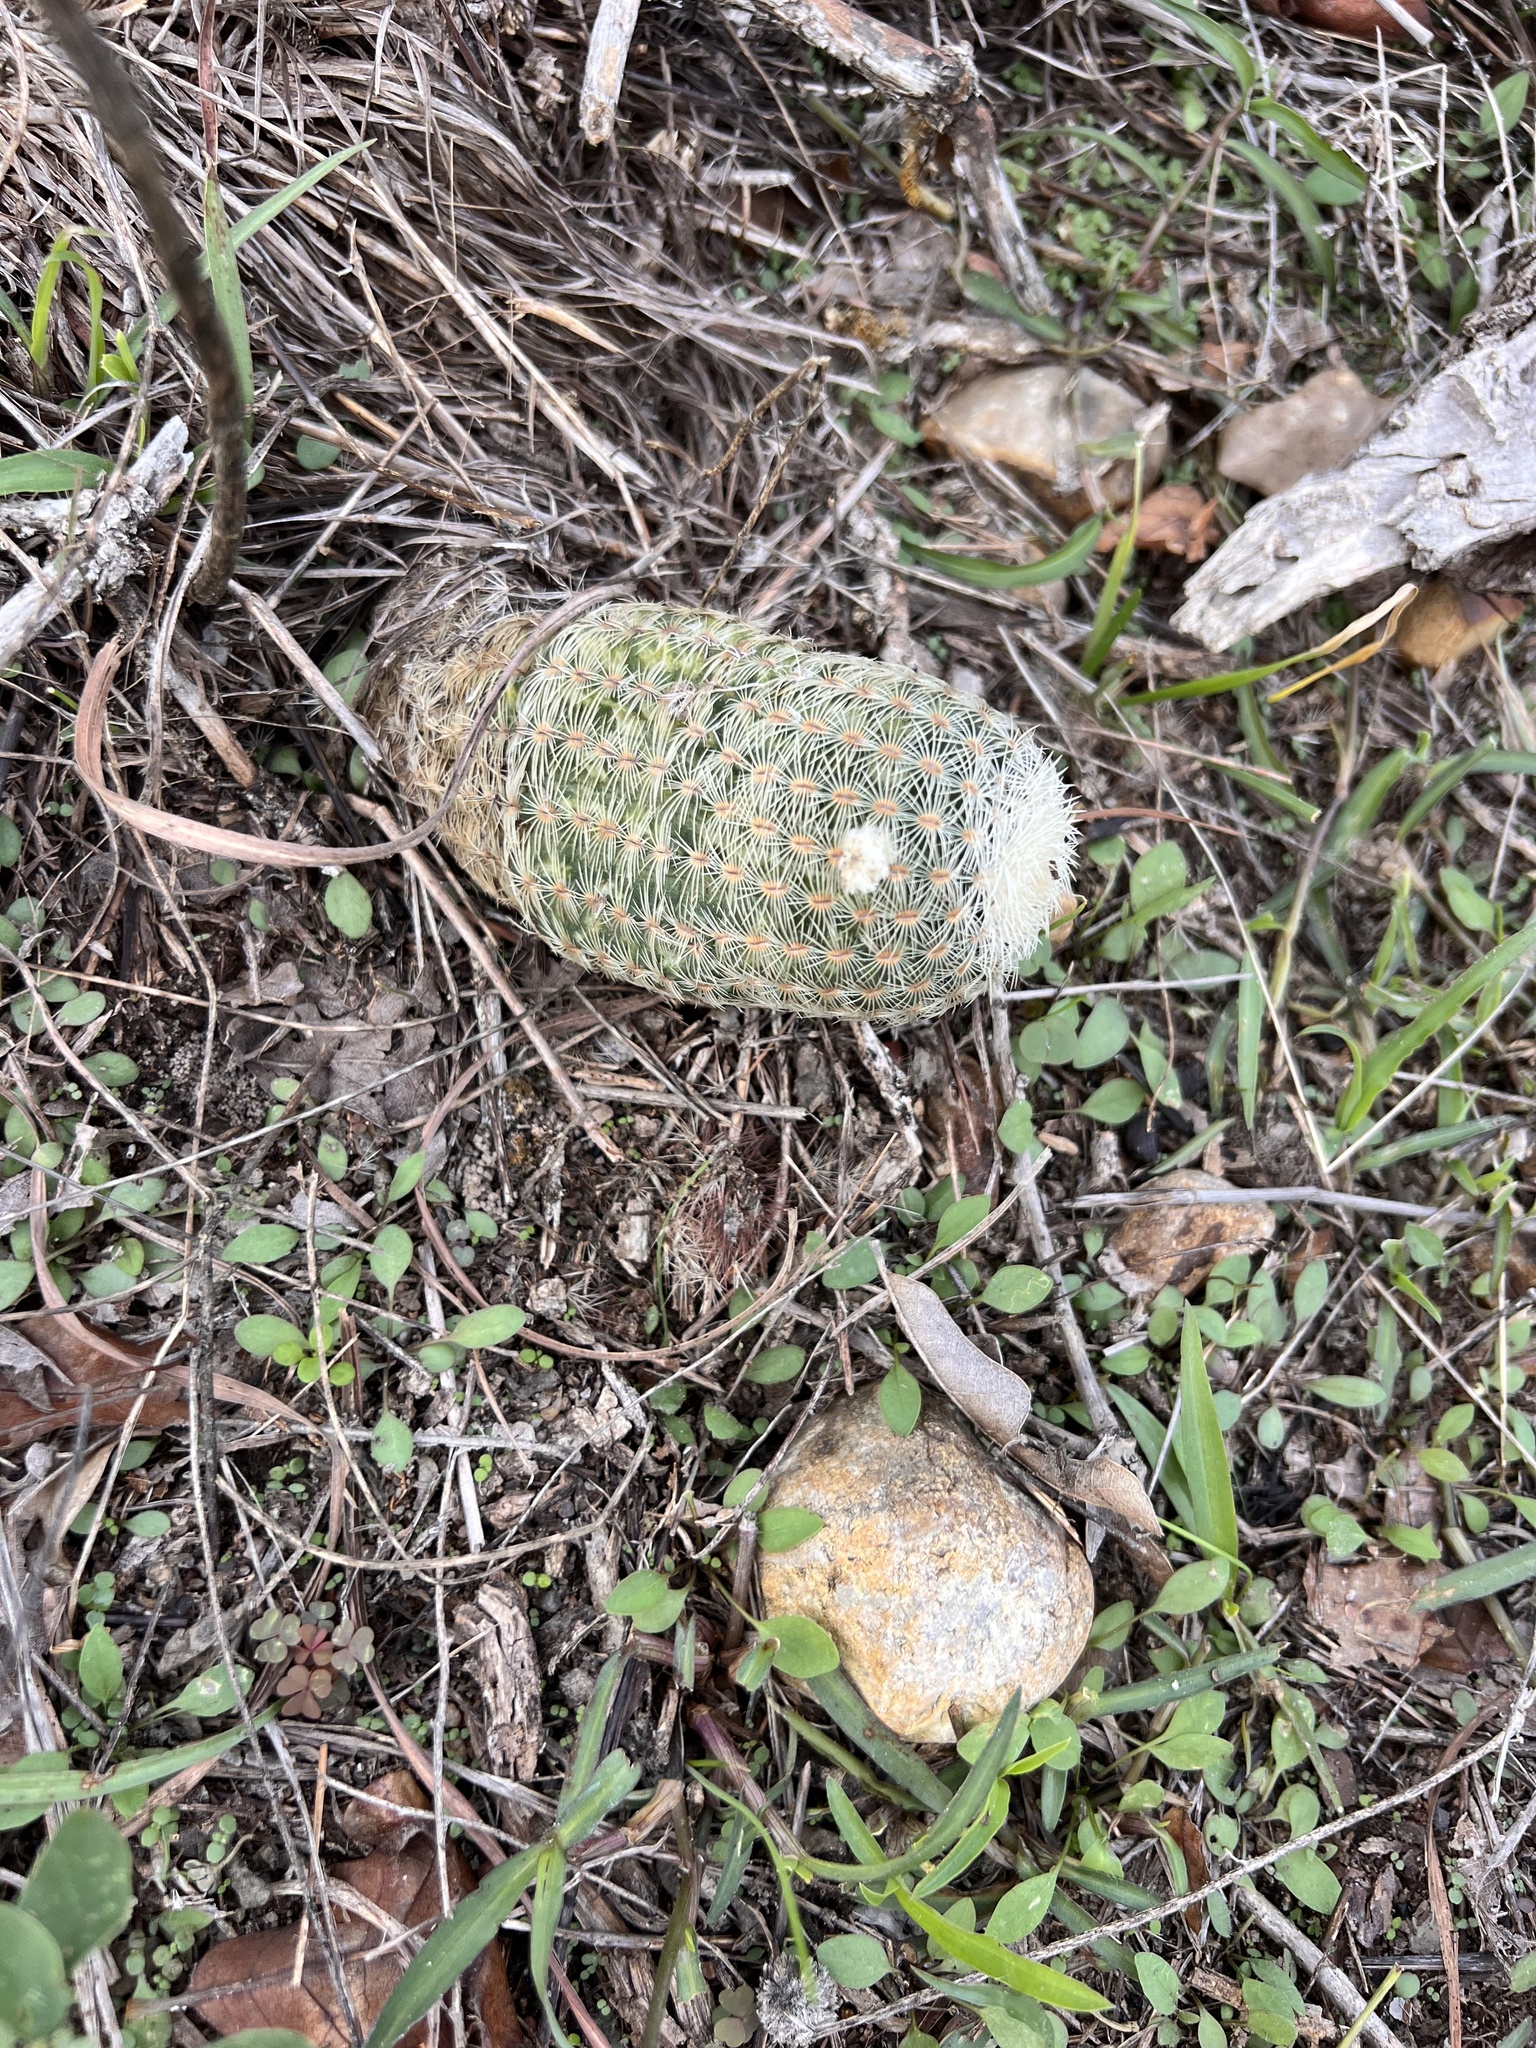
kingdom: Plantae
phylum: Tracheophyta
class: Magnoliopsida
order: Caryophyllales
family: Cactaceae
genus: Echinocereus
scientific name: Echinocereus reichenbachii
